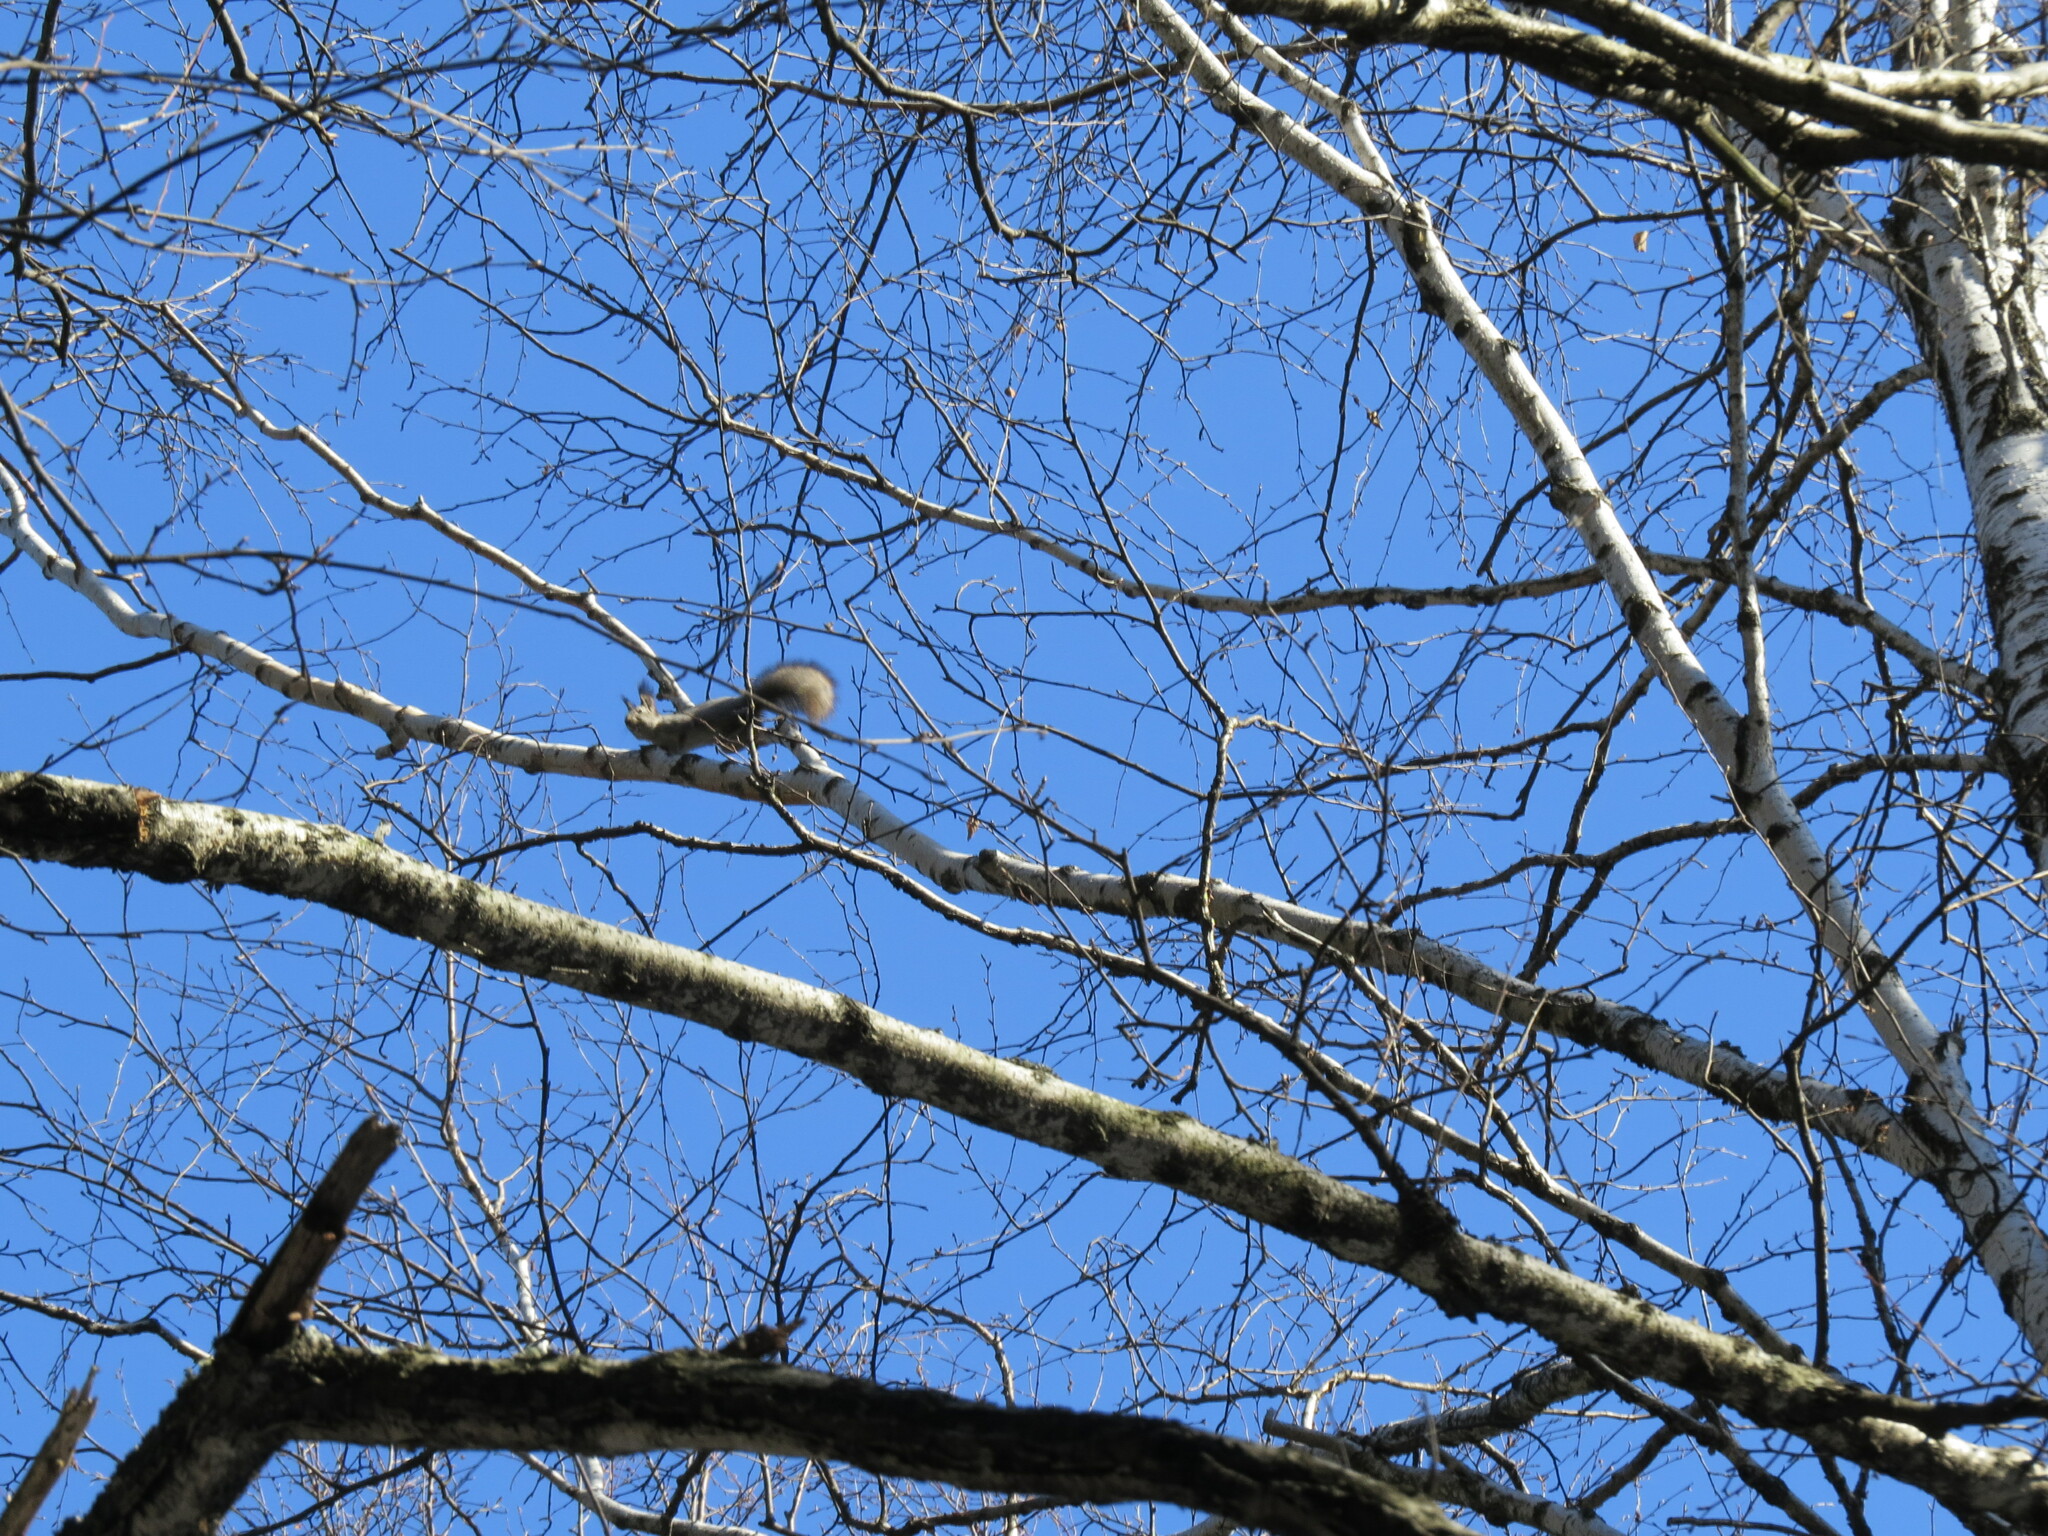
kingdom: Animalia
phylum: Chordata
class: Mammalia
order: Rodentia
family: Sciuridae
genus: Sciurus
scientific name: Sciurus vulgaris
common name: Eurasian red squirrel
